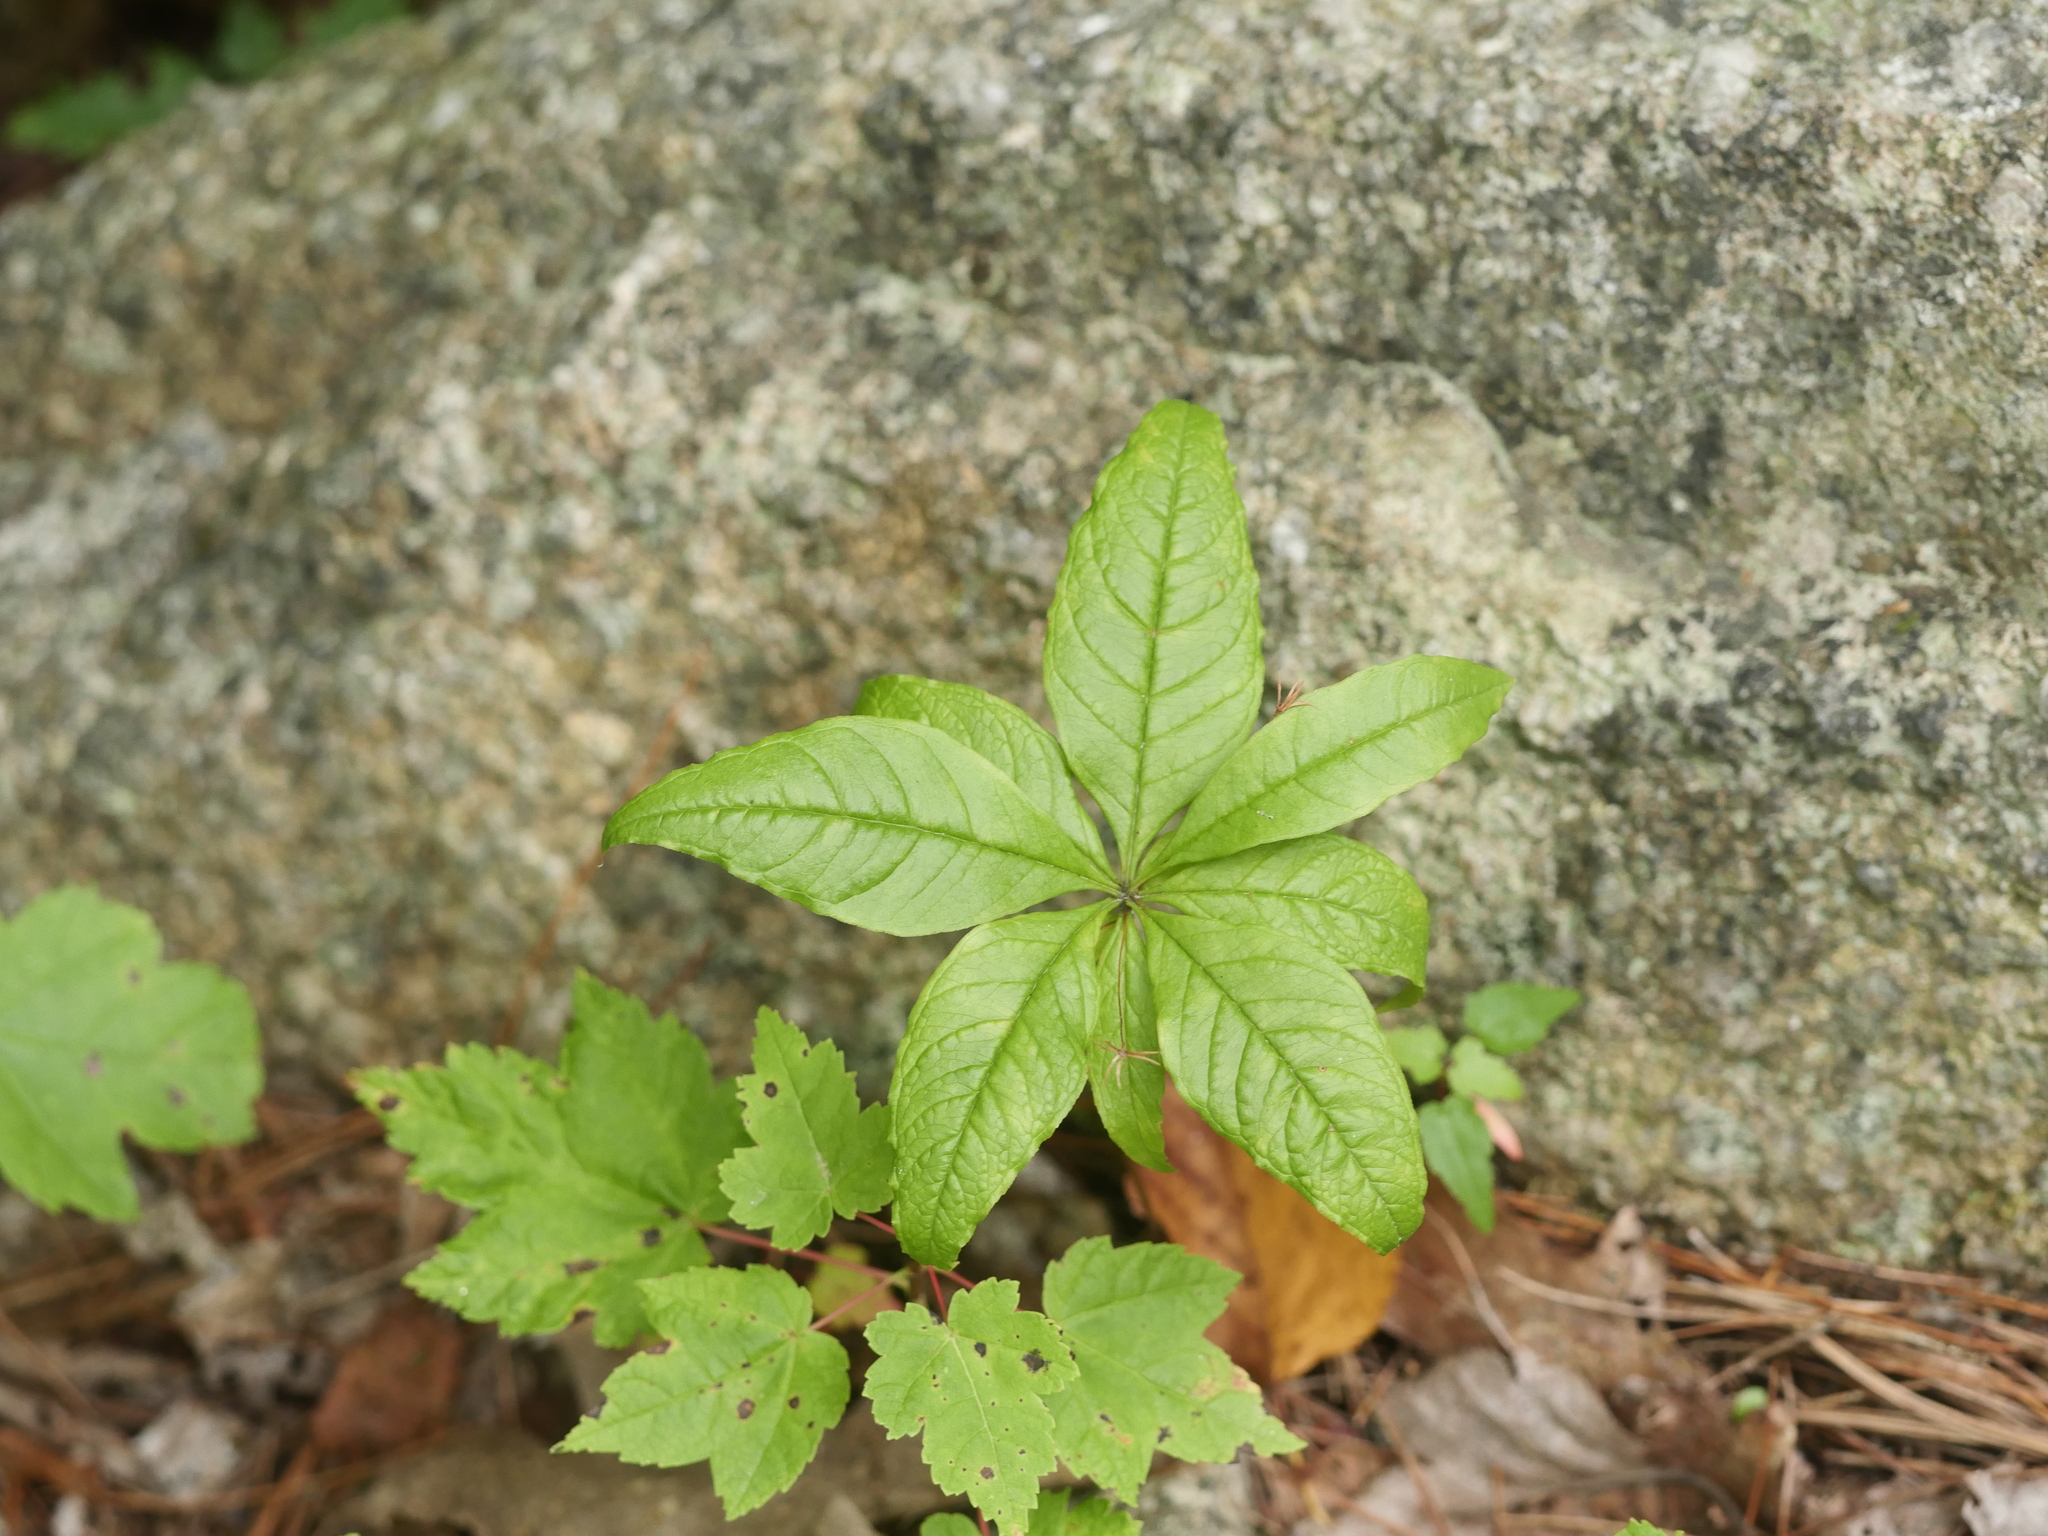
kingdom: Plantae
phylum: Tracheophyta
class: Magnoliopsida
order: Ericales
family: Primulaceae
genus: Lysimachia
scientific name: Lysimachia borealis
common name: American starflower
